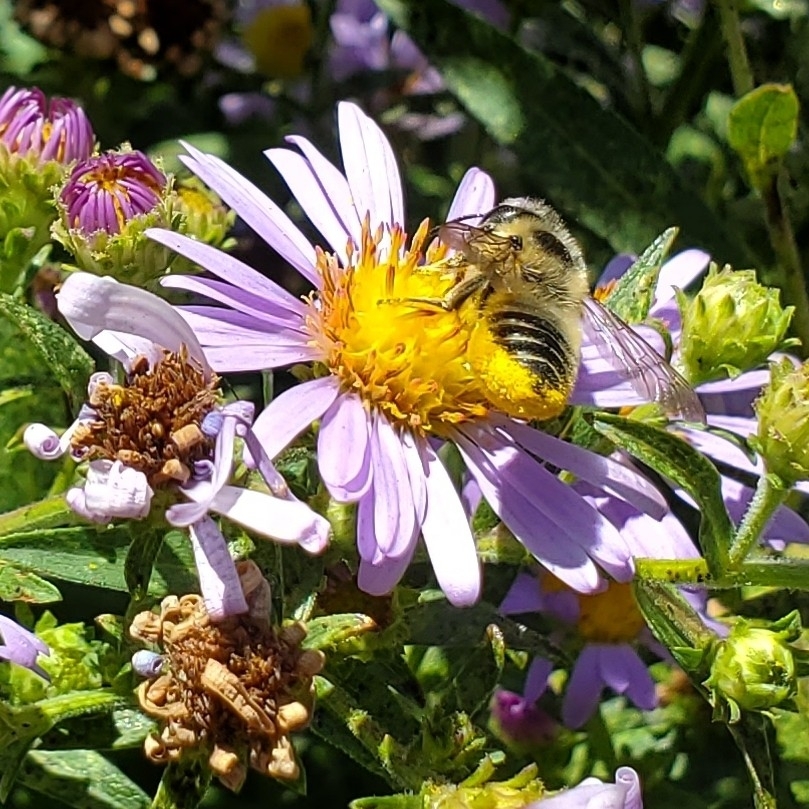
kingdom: Animalia
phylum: Arthropoda
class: Insecta
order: Hymenoptera
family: Megachilidae
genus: Megachile
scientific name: Megachile perihirta
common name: Western leafcutter
